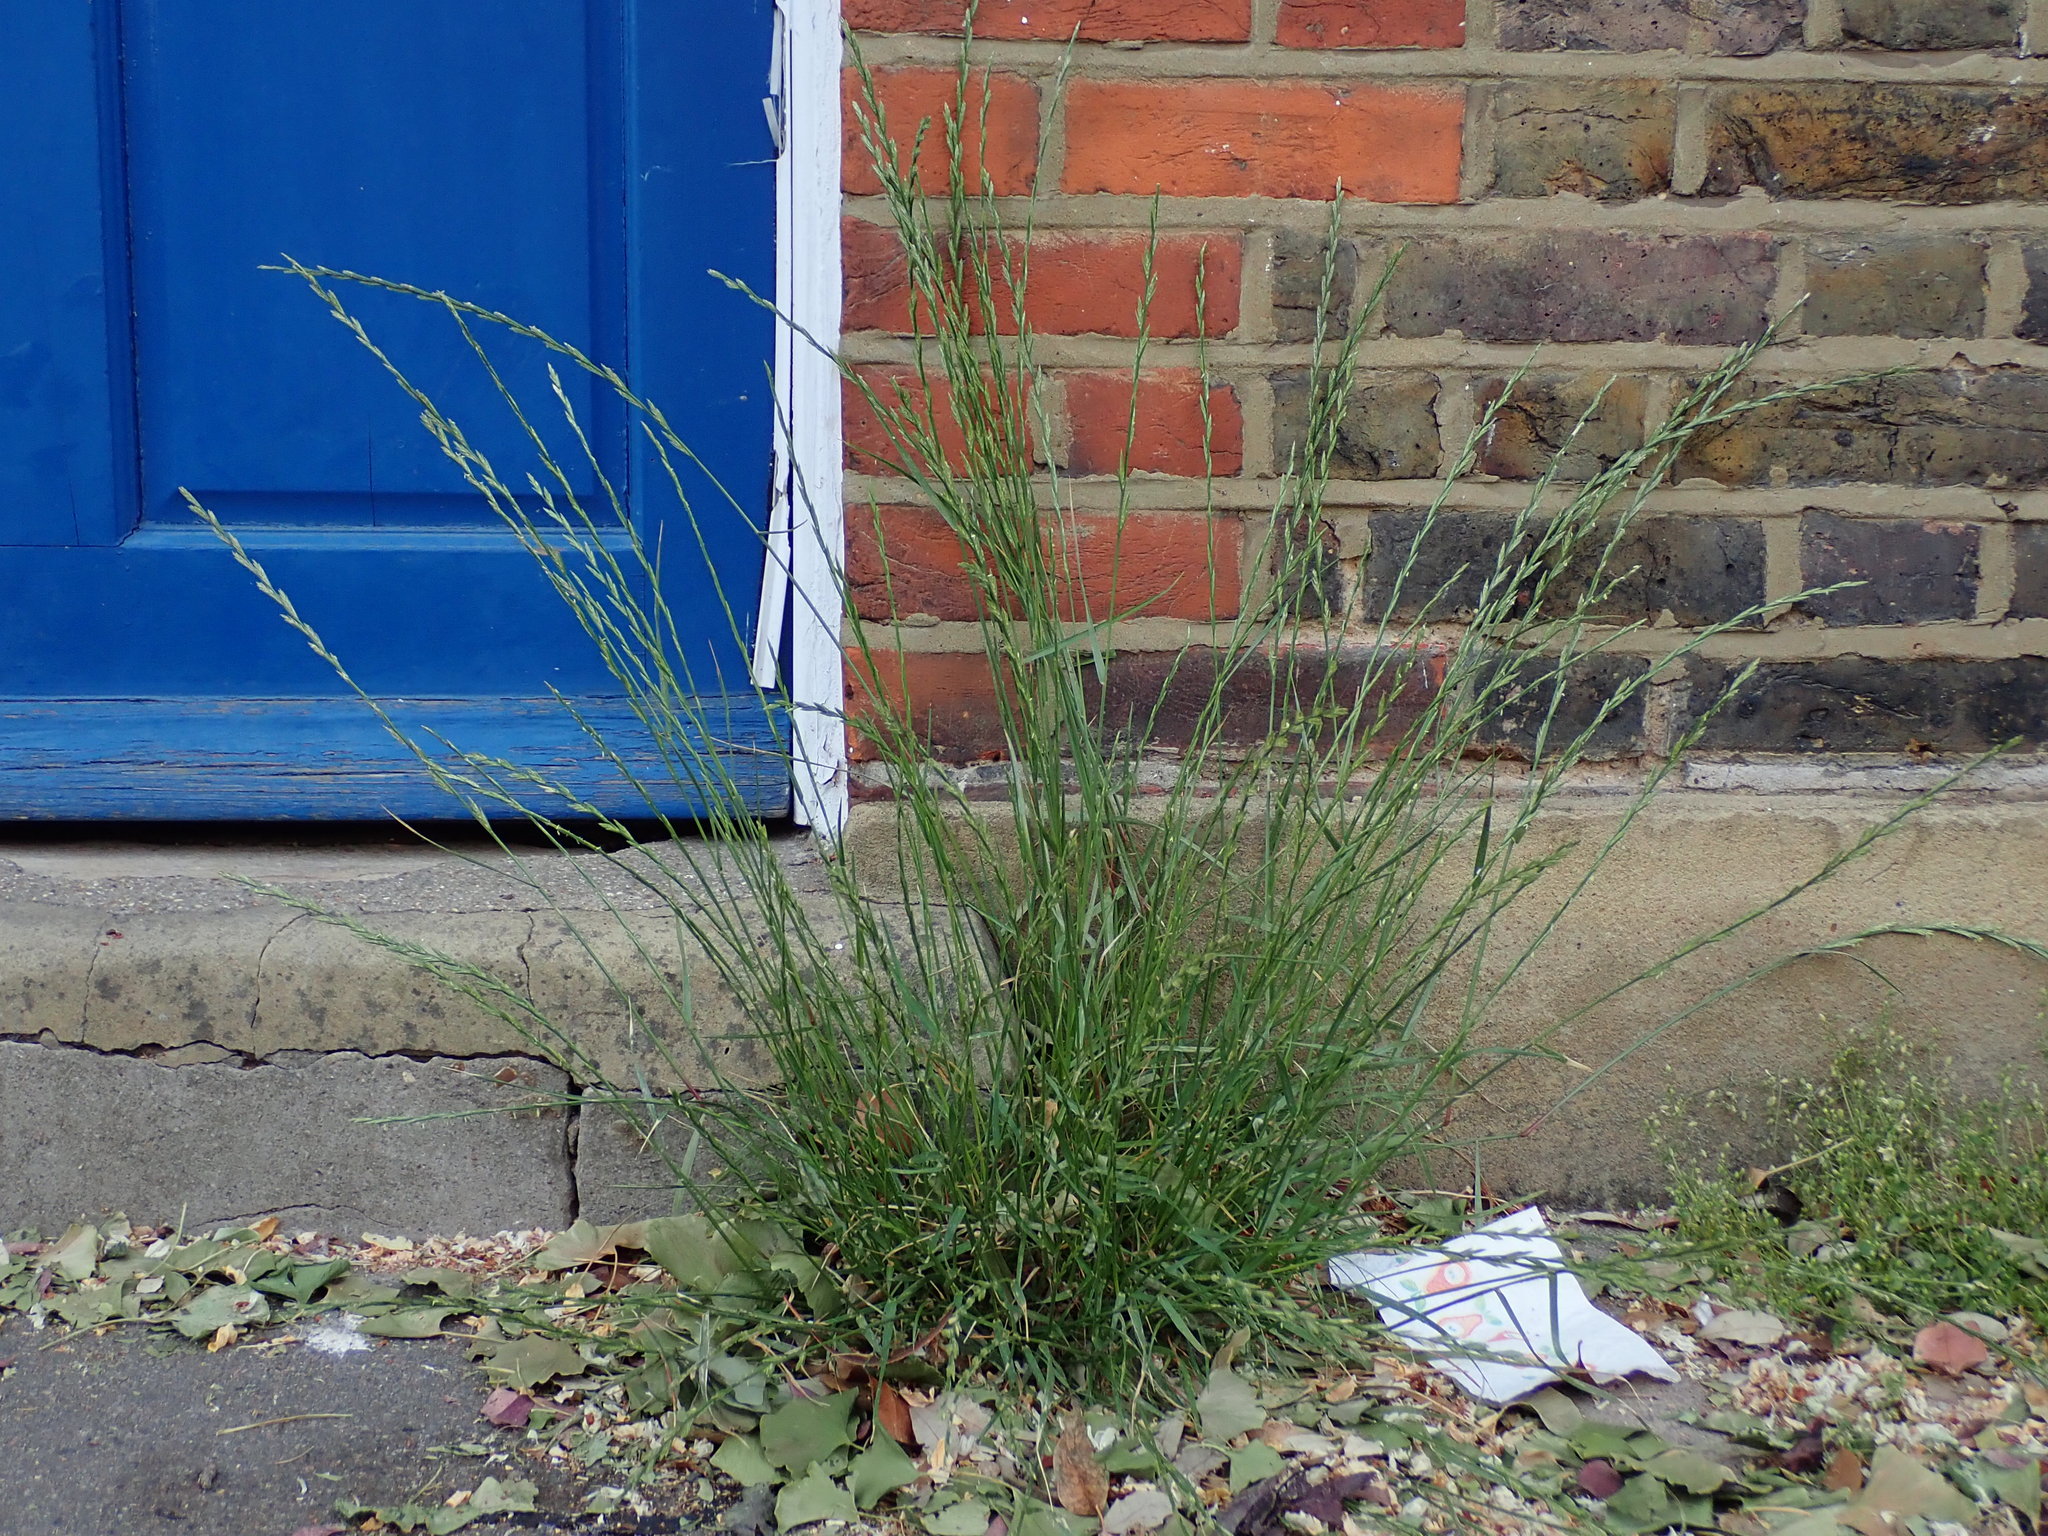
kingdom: Plantae
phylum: Tracheophyta
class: Liliopsida
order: Poales
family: Poaceae
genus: Lolium
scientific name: Lolium perenne
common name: Perennial ryegrass
